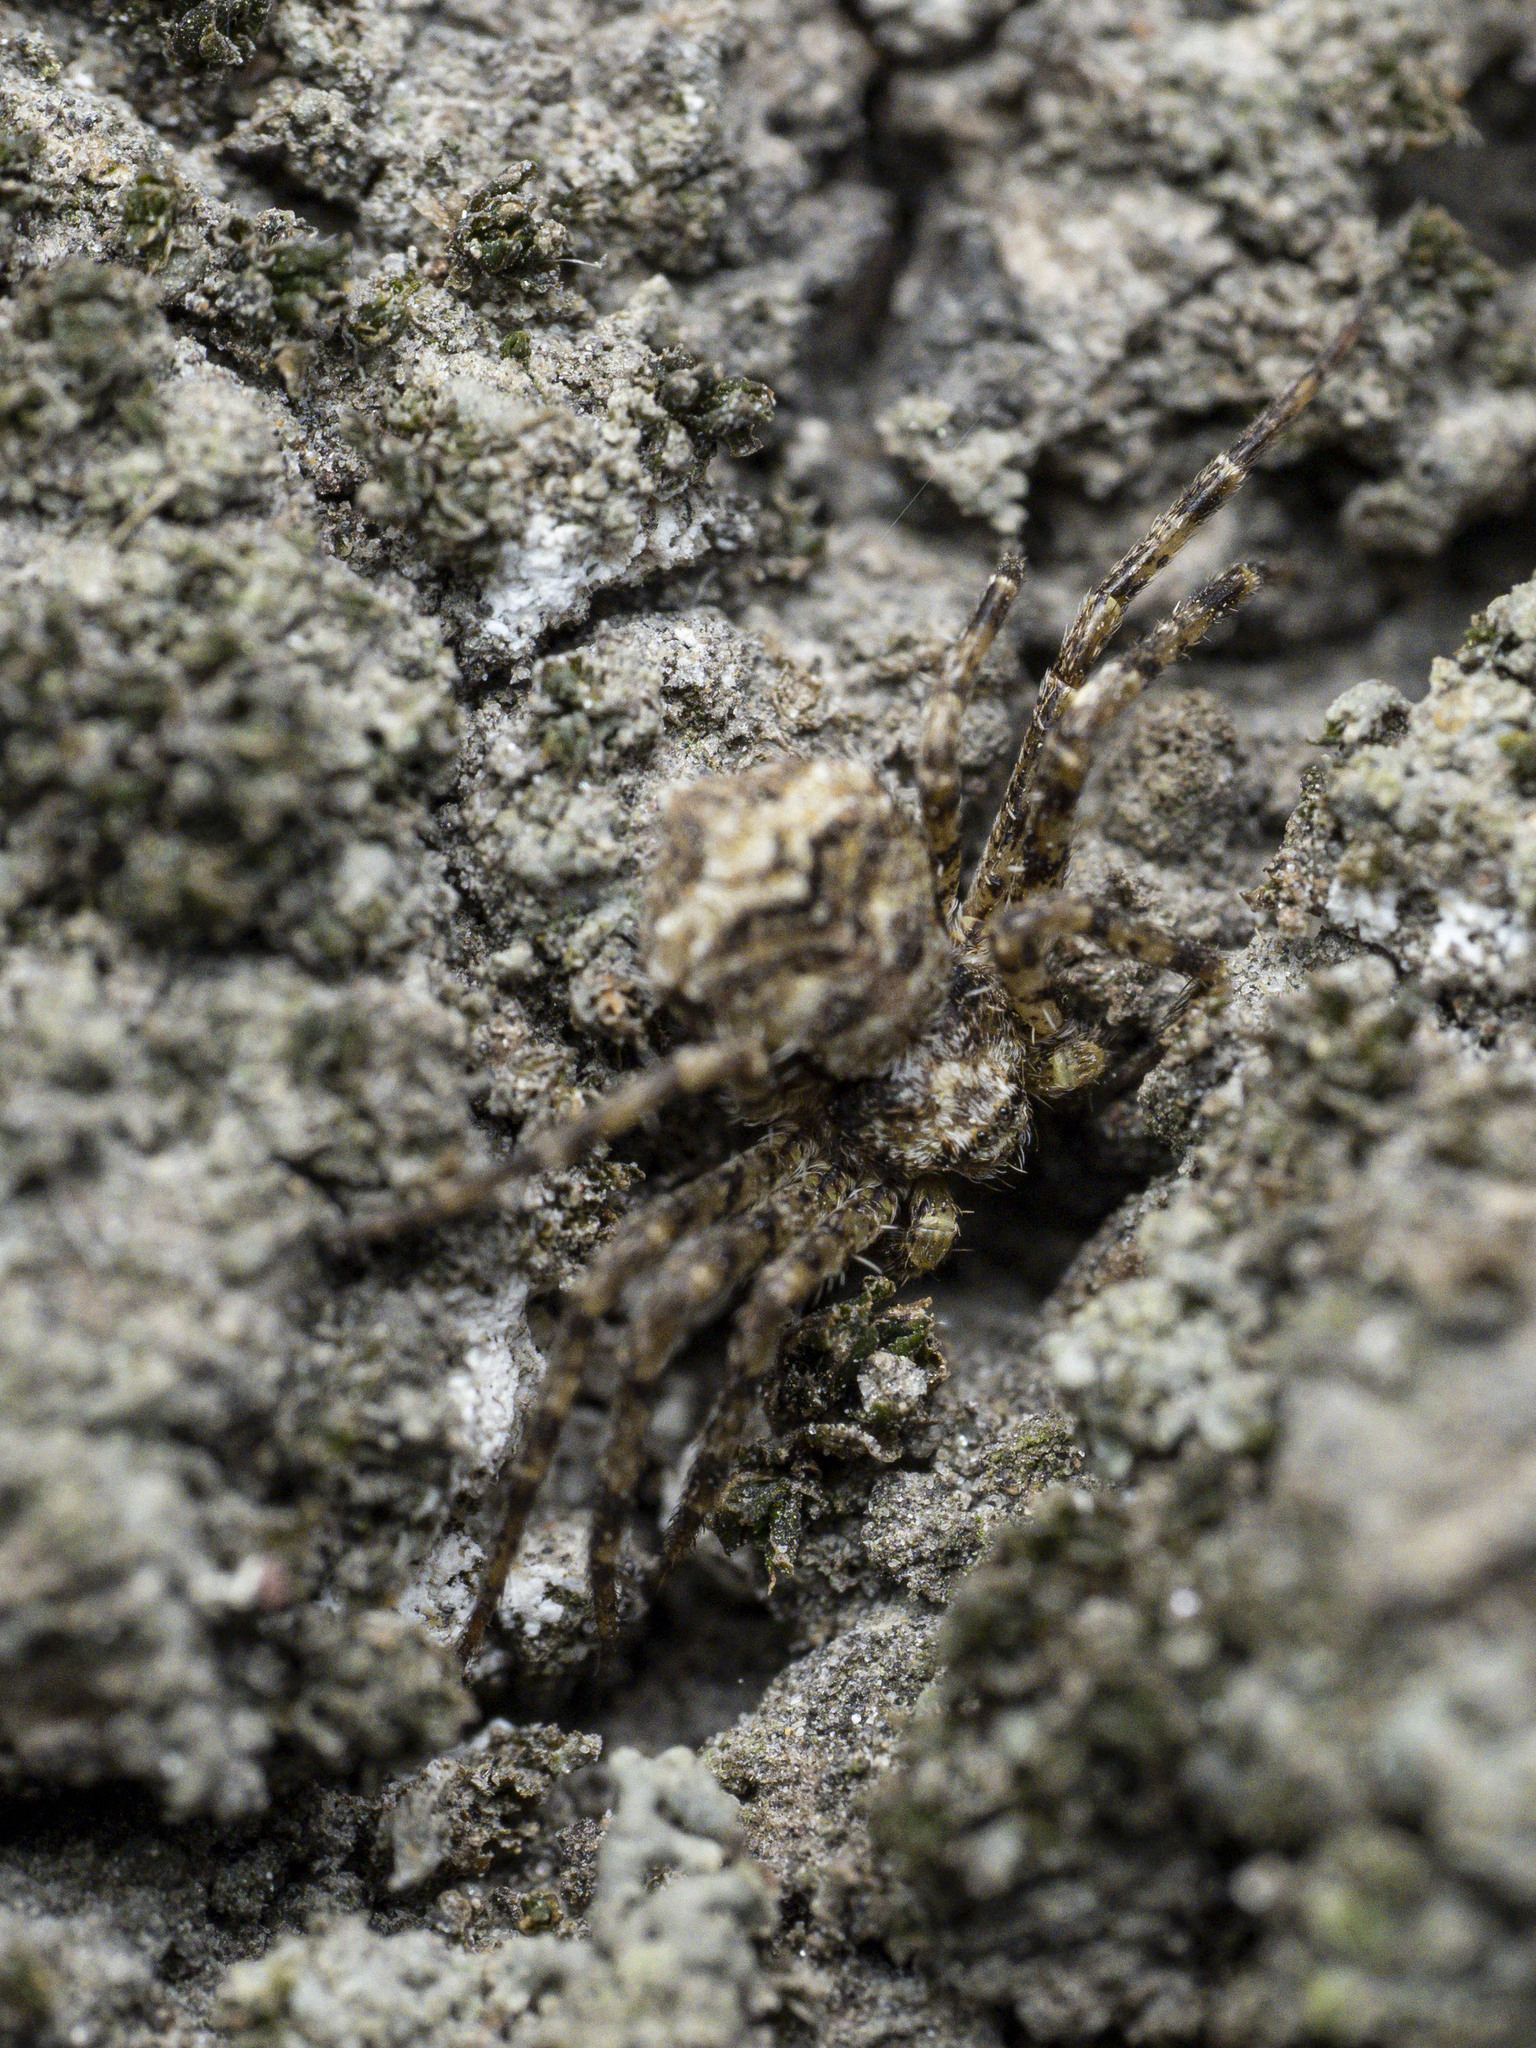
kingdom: Animalia
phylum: Arthropoda
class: Arachnida
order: Araneae
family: Philodromidae
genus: Philodromus
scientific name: Philodromus poecilus
